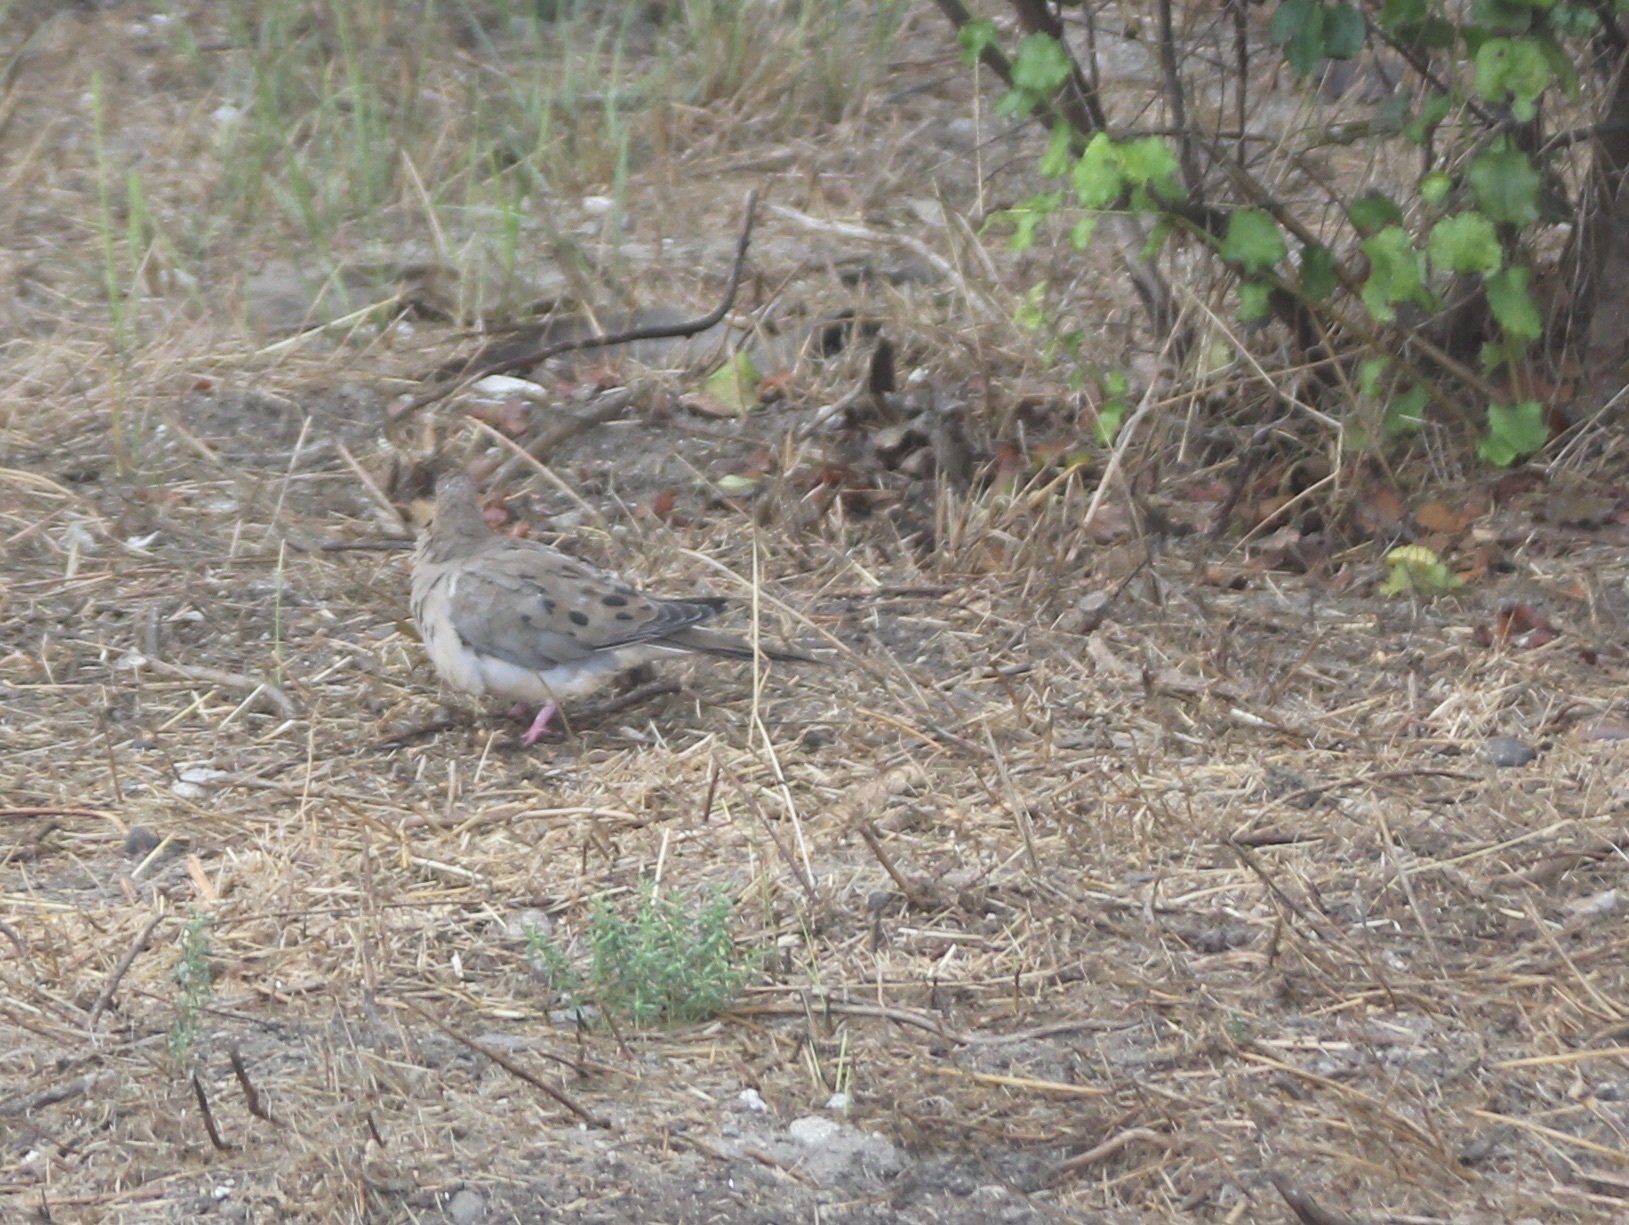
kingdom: Animalia
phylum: Chordata
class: Aves
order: Columbiformes
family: Columbidae
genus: Zenaida
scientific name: Zenaida macroura
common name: Mourning dove
